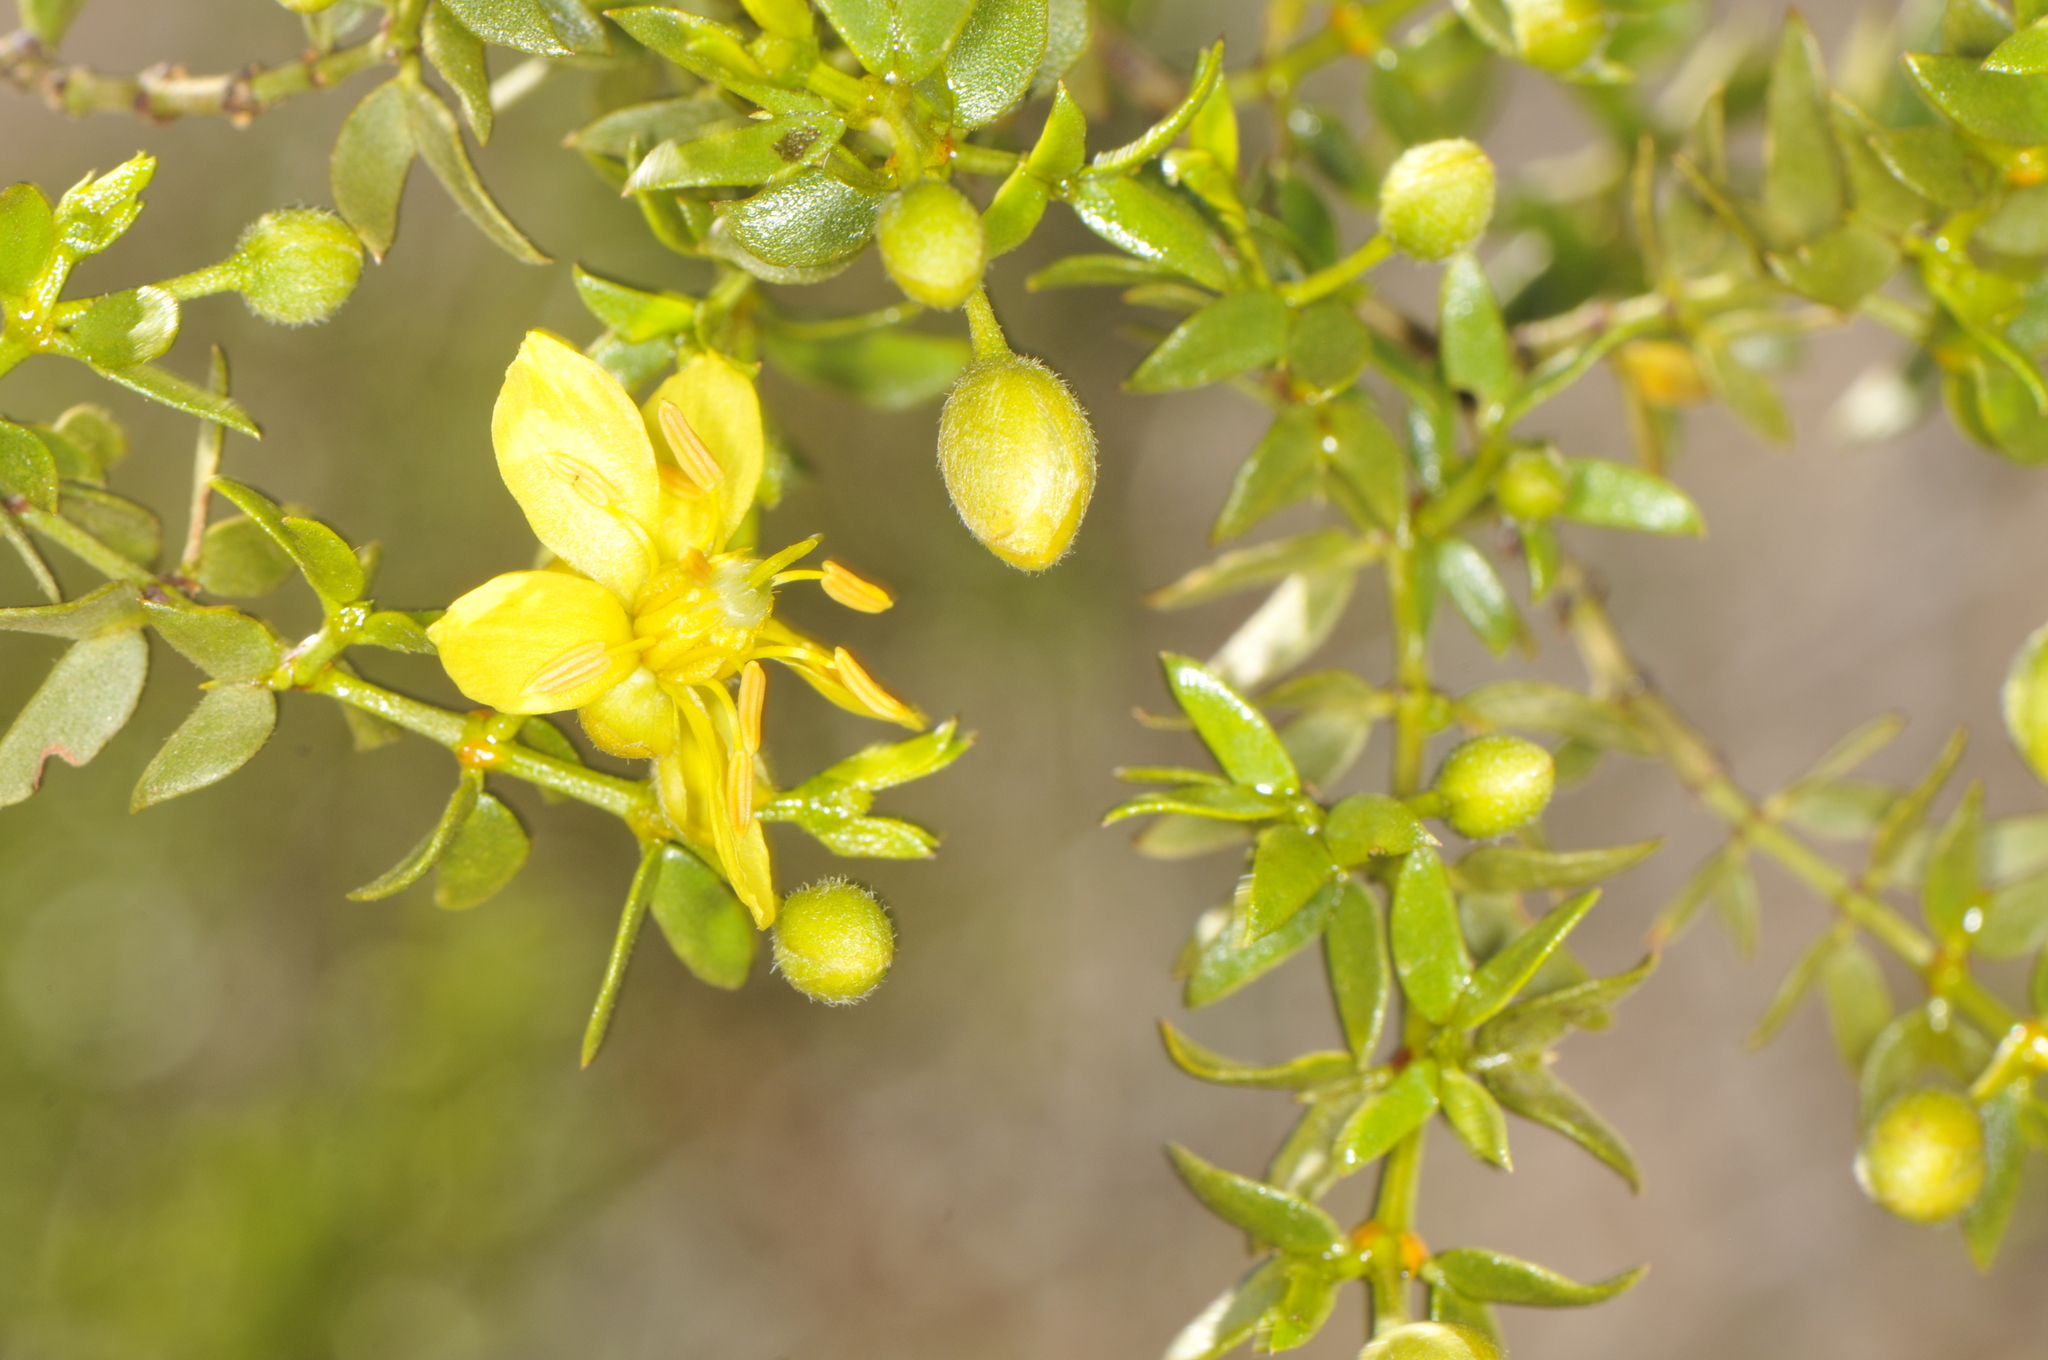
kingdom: Plantae
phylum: Tracheophyta
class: Magnoliopsida
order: Zygophyllales
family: Zygophyllaceae
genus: Larrea
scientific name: Larrea tridentata
